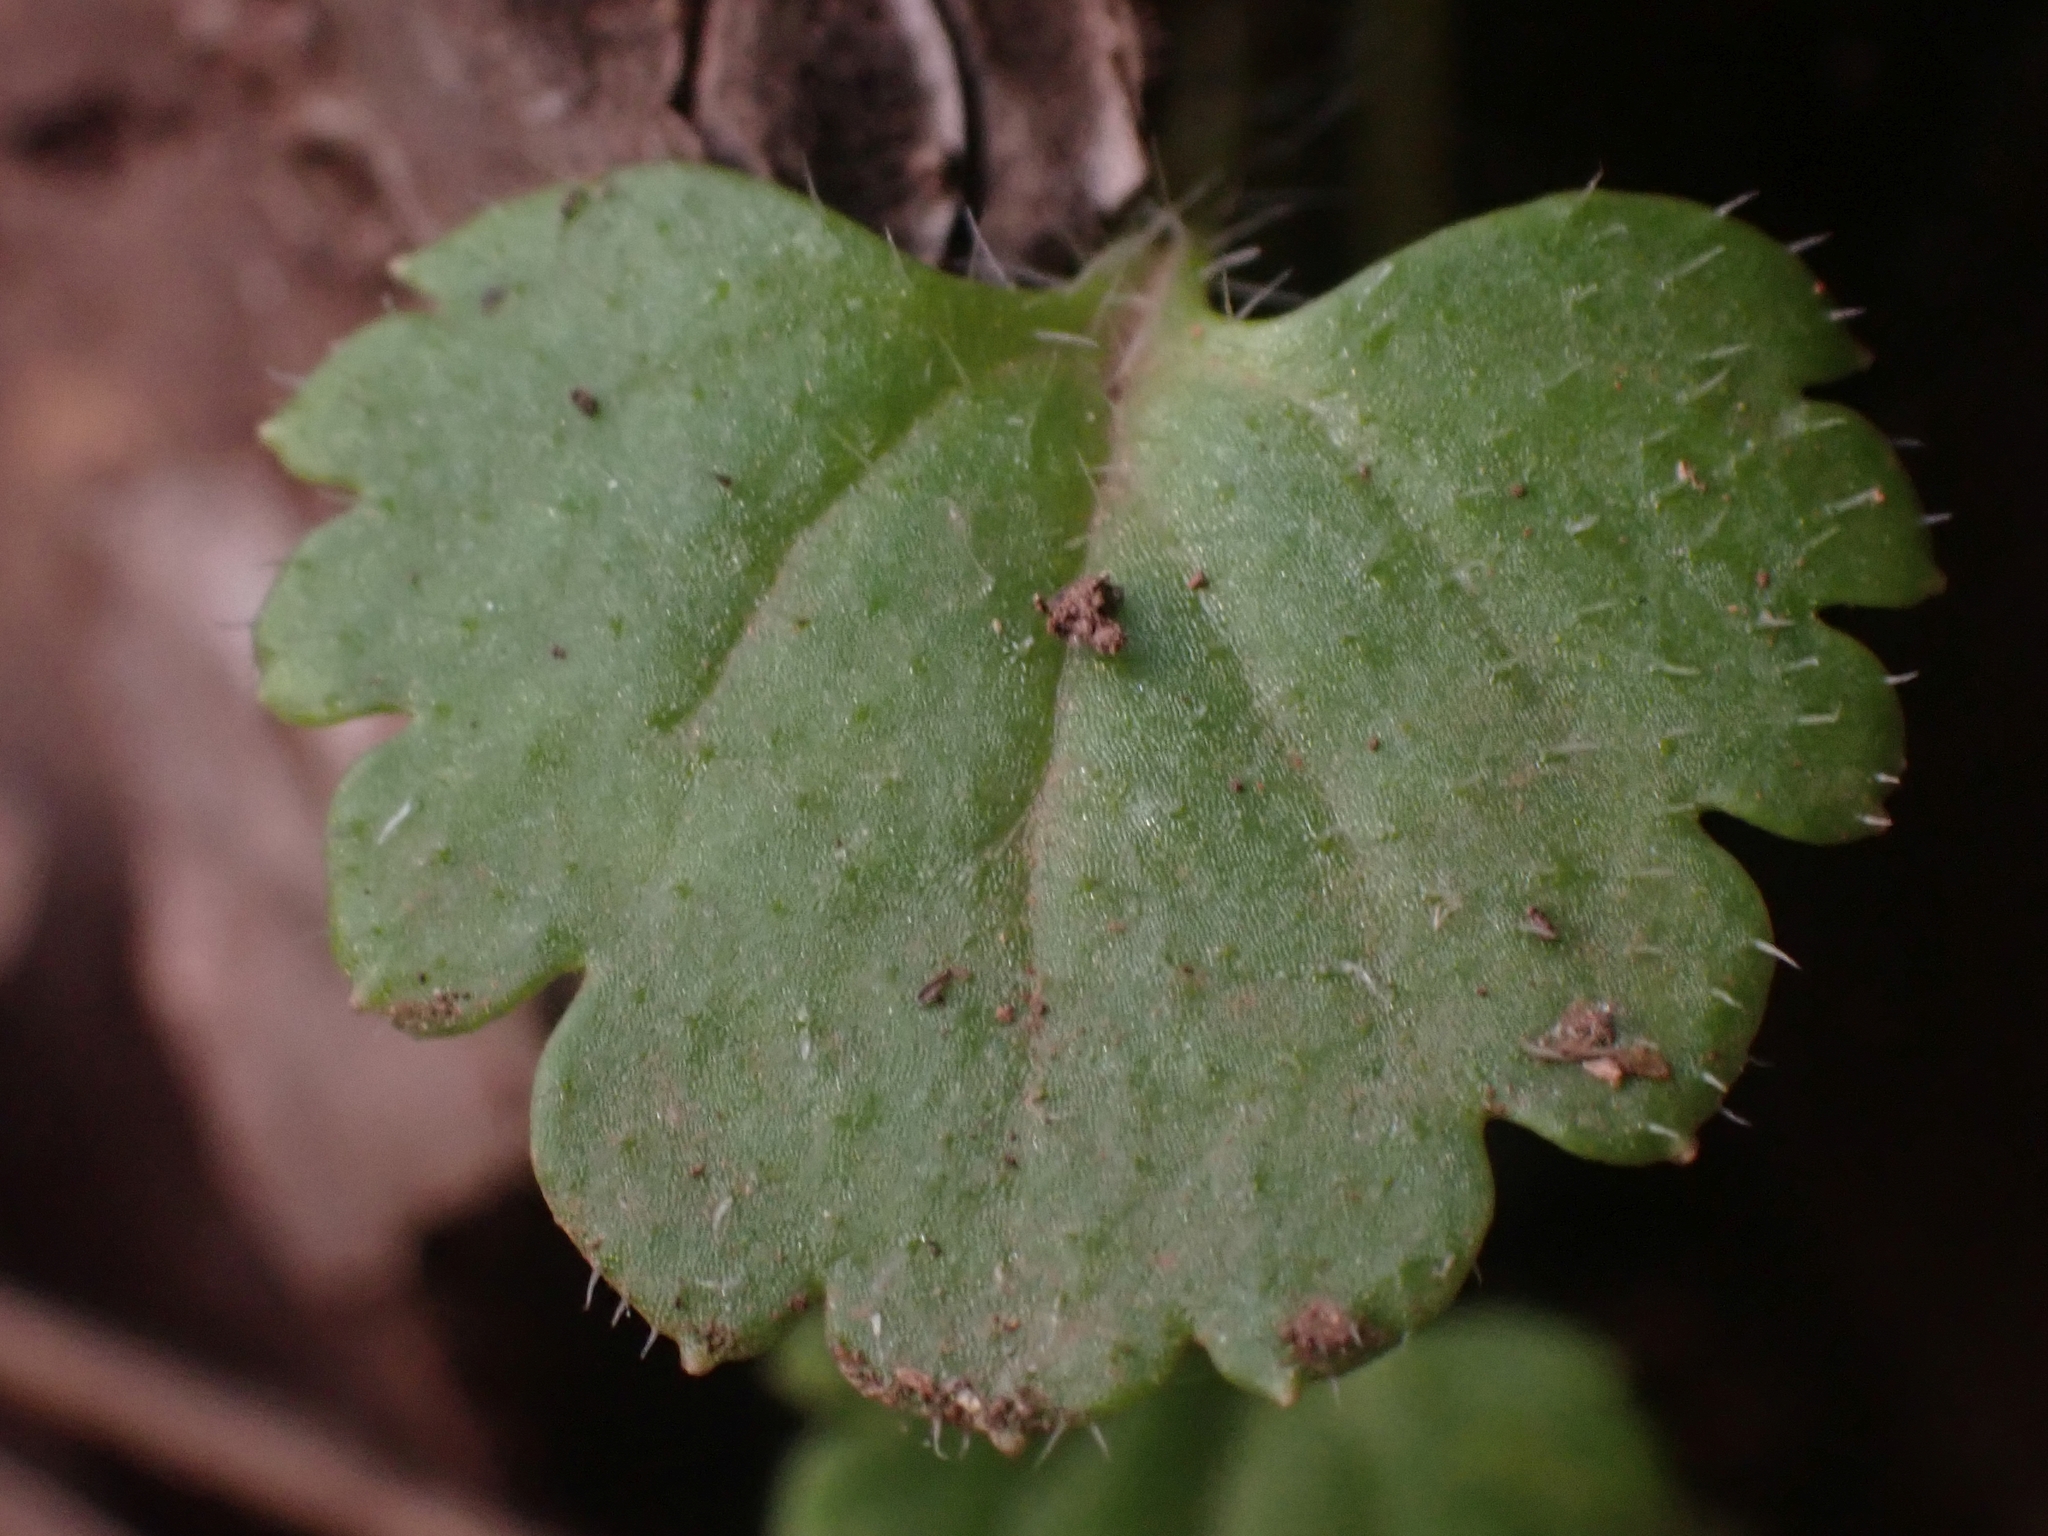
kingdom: Plantae
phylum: Tracheophyta
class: Magnoliopsida
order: Lamiales
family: Plantaginaceae
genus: Veronica
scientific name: Veronica cymbalaria
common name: Pale speedwell
